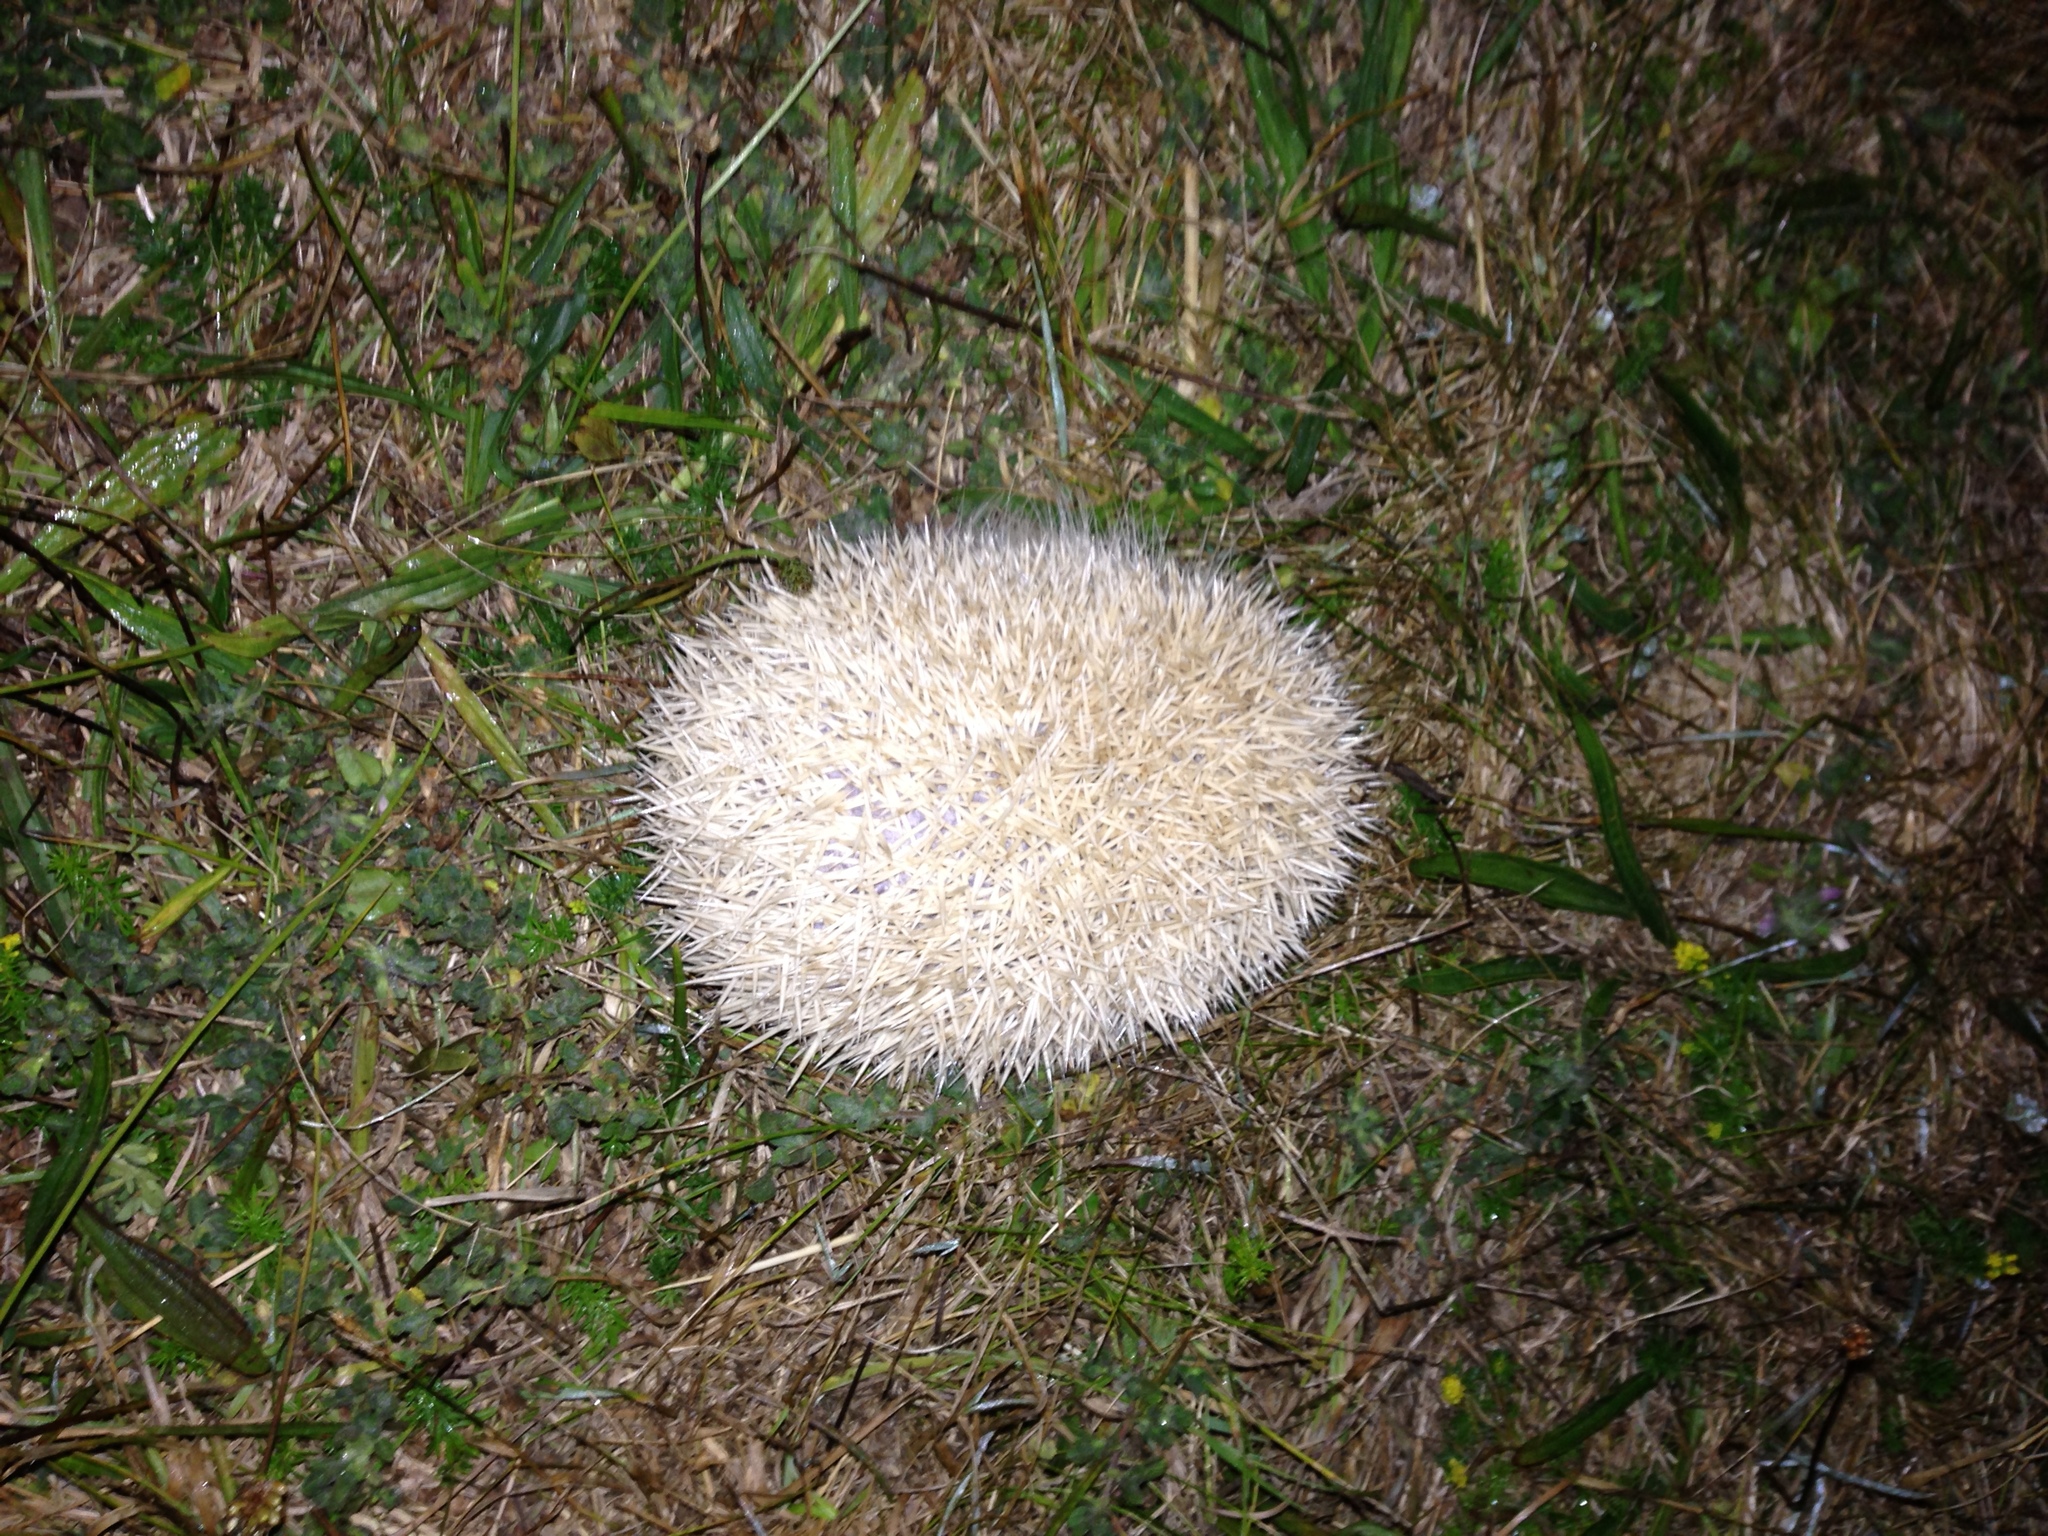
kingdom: Animalia
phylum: Chordata
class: Mammalia
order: Erinaceomorpha
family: Erinaceidae
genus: Erinaceus
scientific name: Erinaceus europaeus
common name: West european hedgehog
